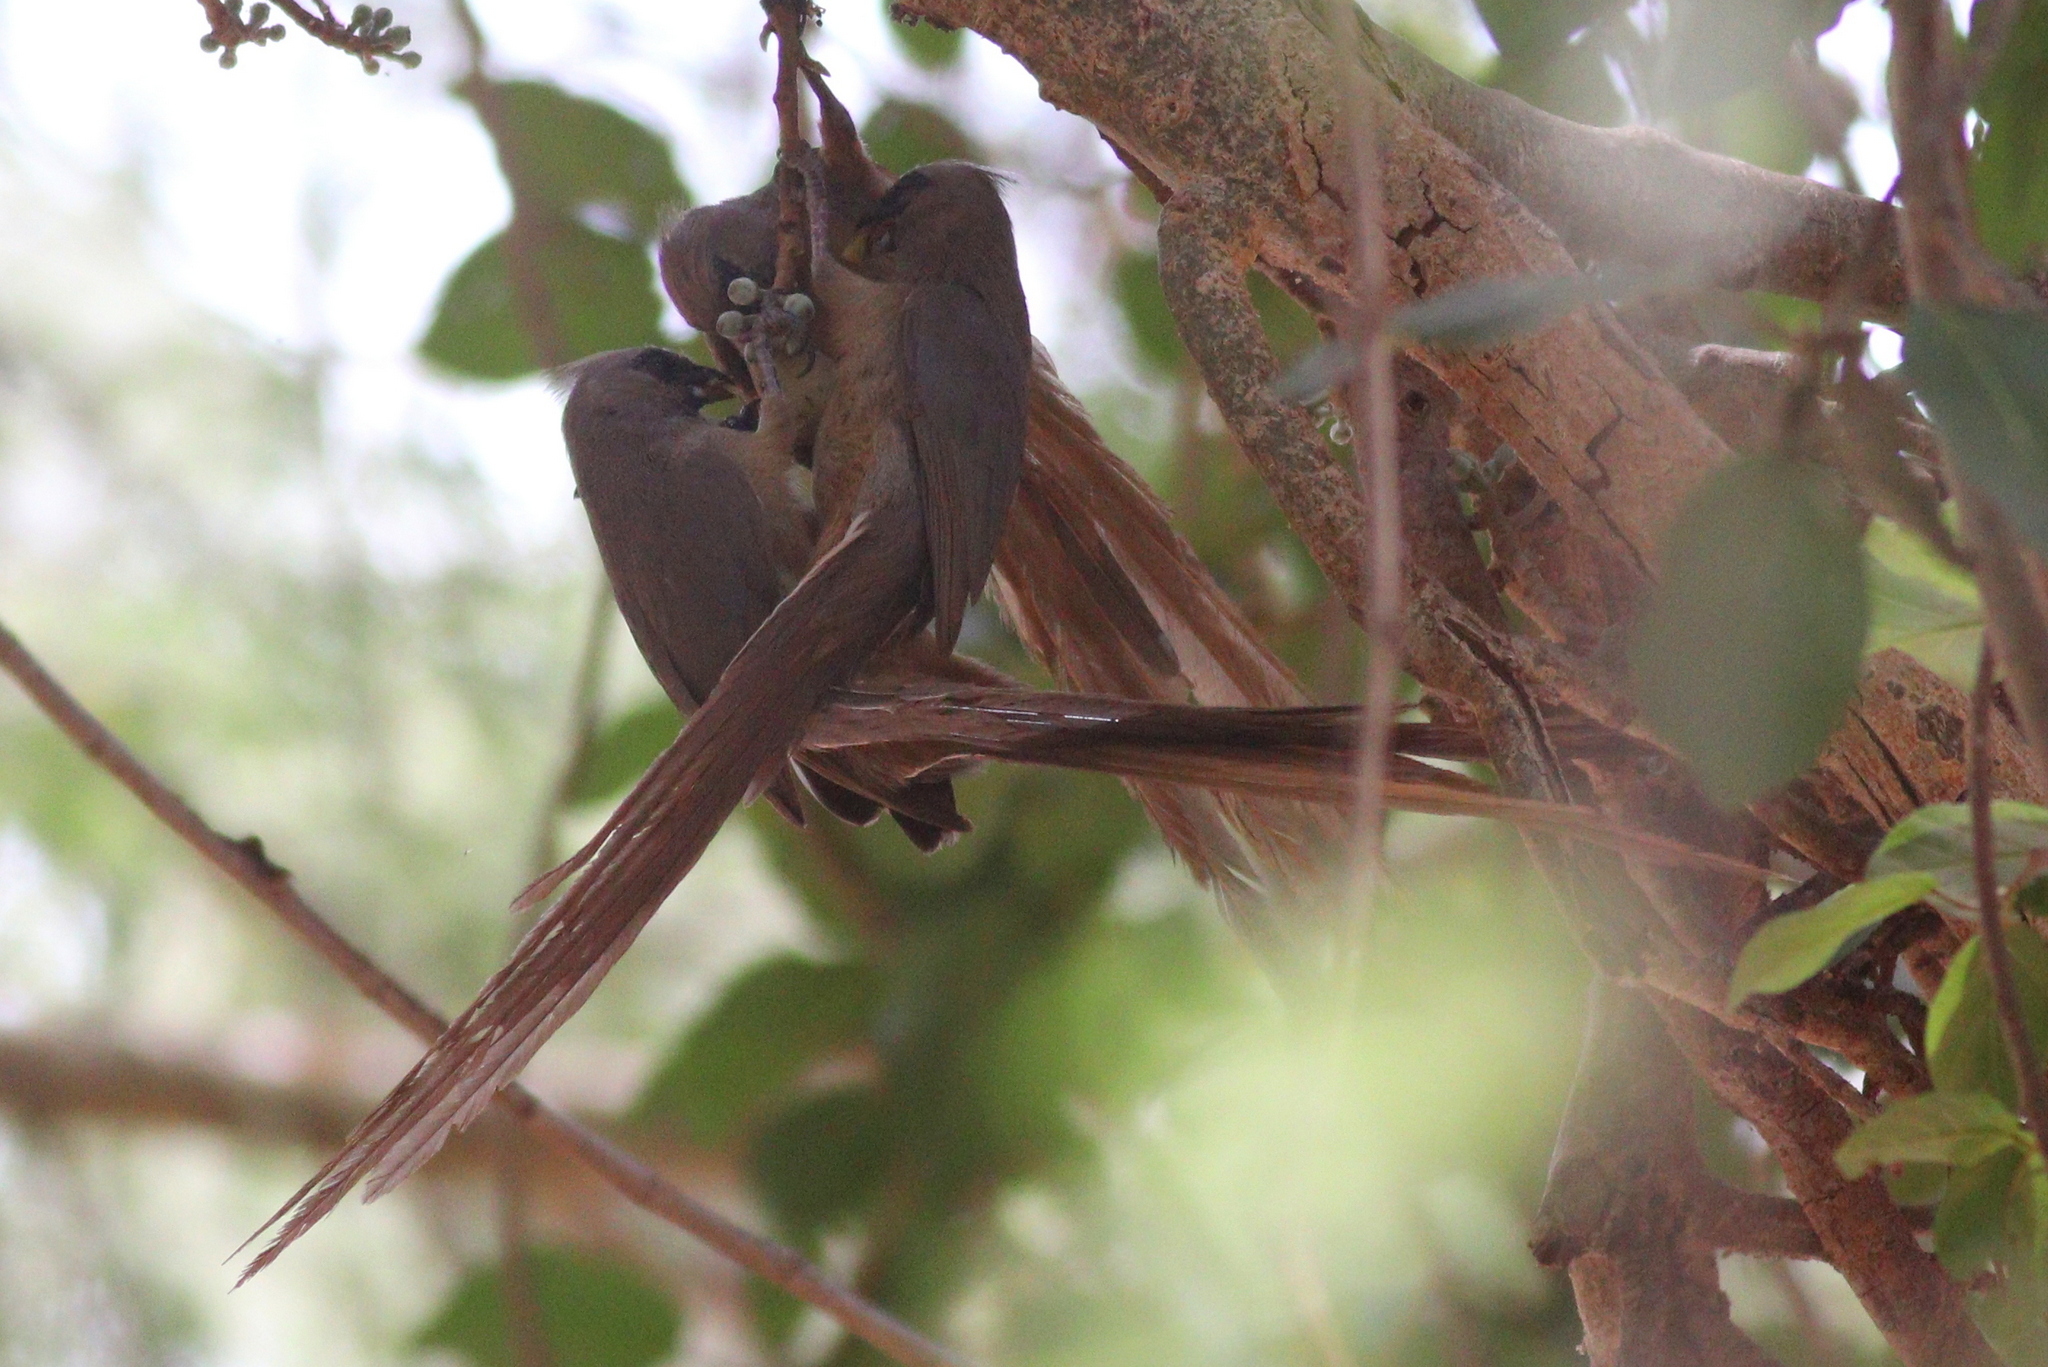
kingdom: Animalia
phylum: Chordata
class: Aves
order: Coliiformes
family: Coliidae
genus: Colius
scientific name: Colius striatus
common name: Speckled mousebird
